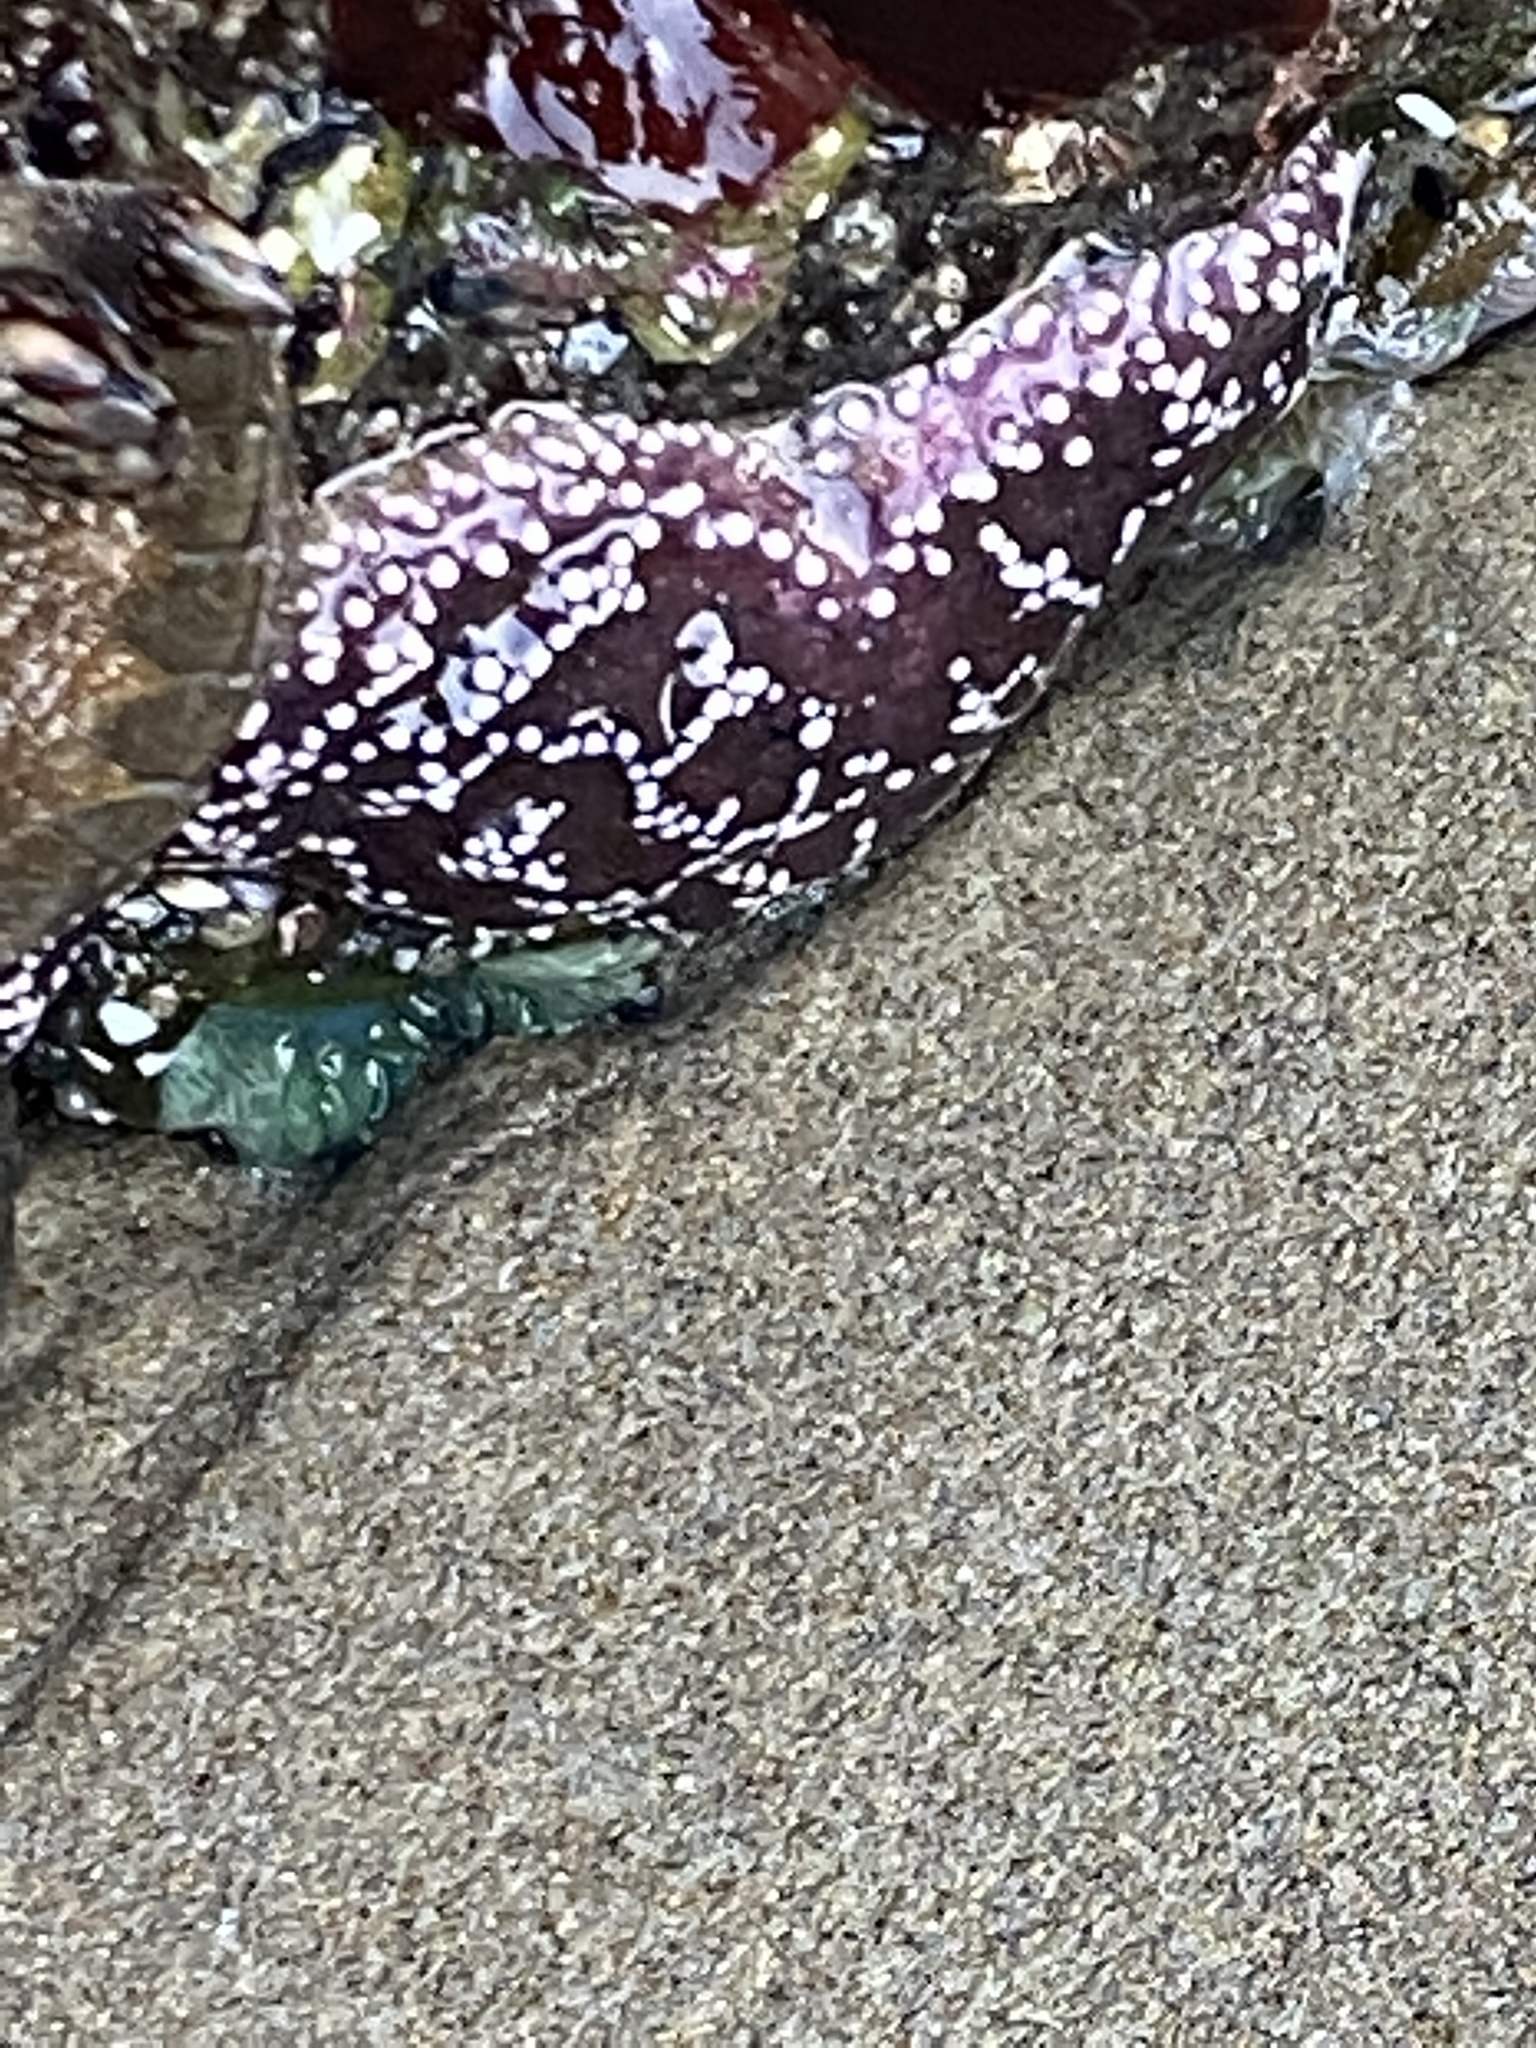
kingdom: Animalia
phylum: Echinodermata
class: Asteroidea
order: Forcipulatida
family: Asteriidae
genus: Pisaster
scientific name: Pisaster ochraceus
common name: Ochre stars
